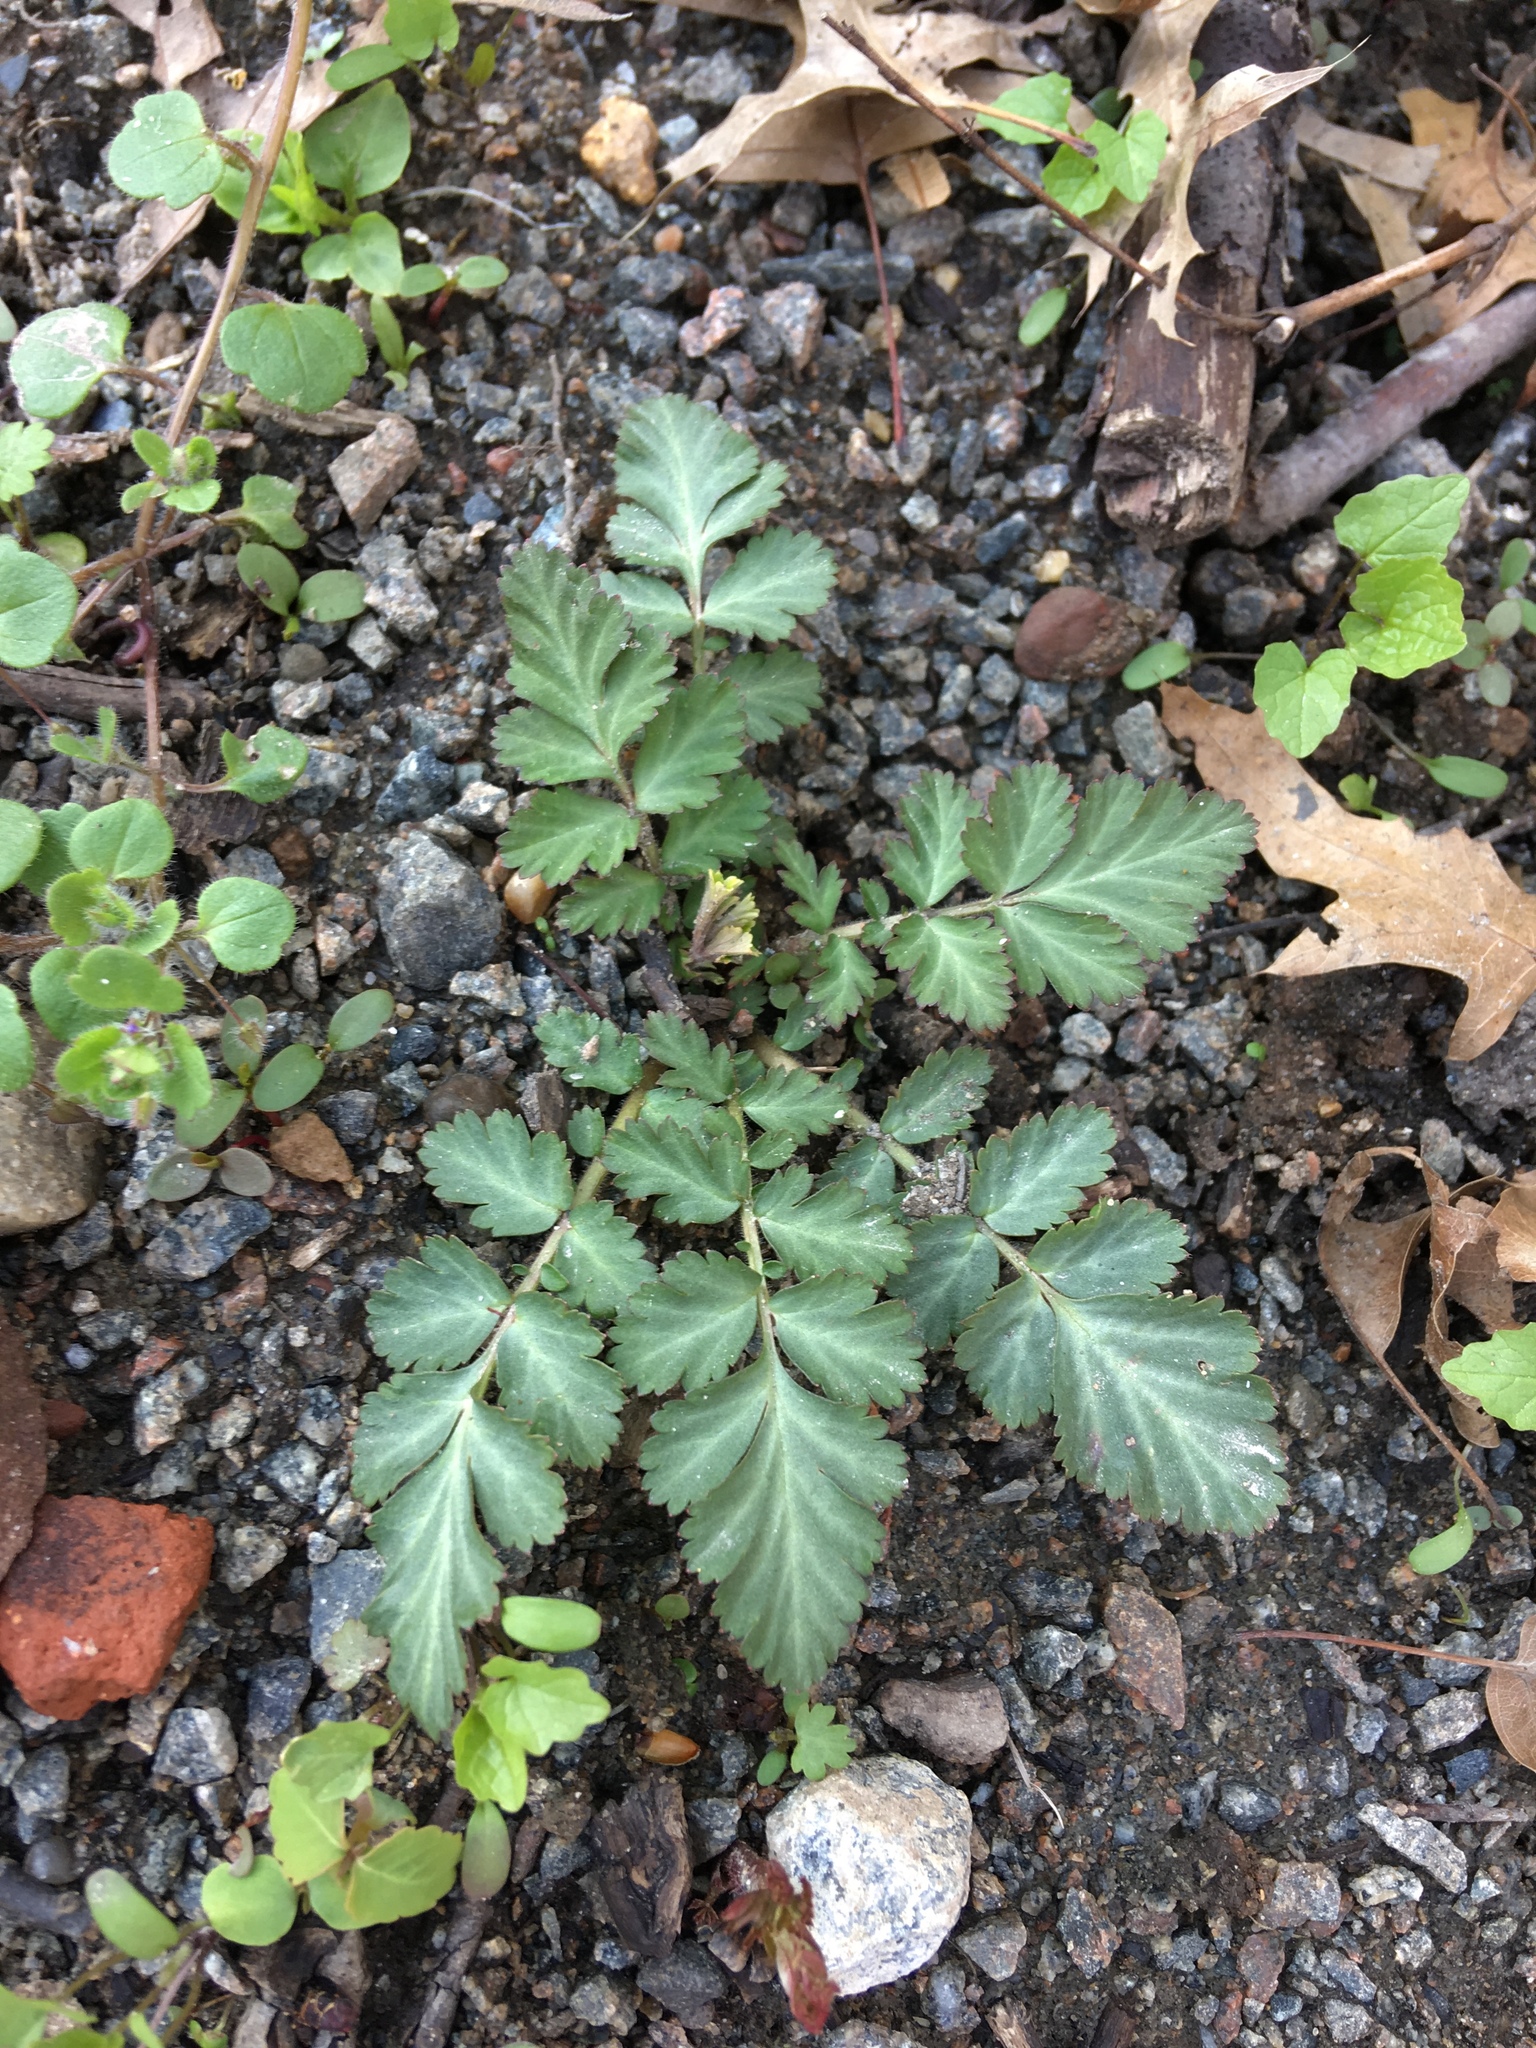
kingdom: Plantae
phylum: Tracheophyta
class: Magnoliopsida
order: Rosales
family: Rosaceae
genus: Geum
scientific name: Geum canadense
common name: White avens
